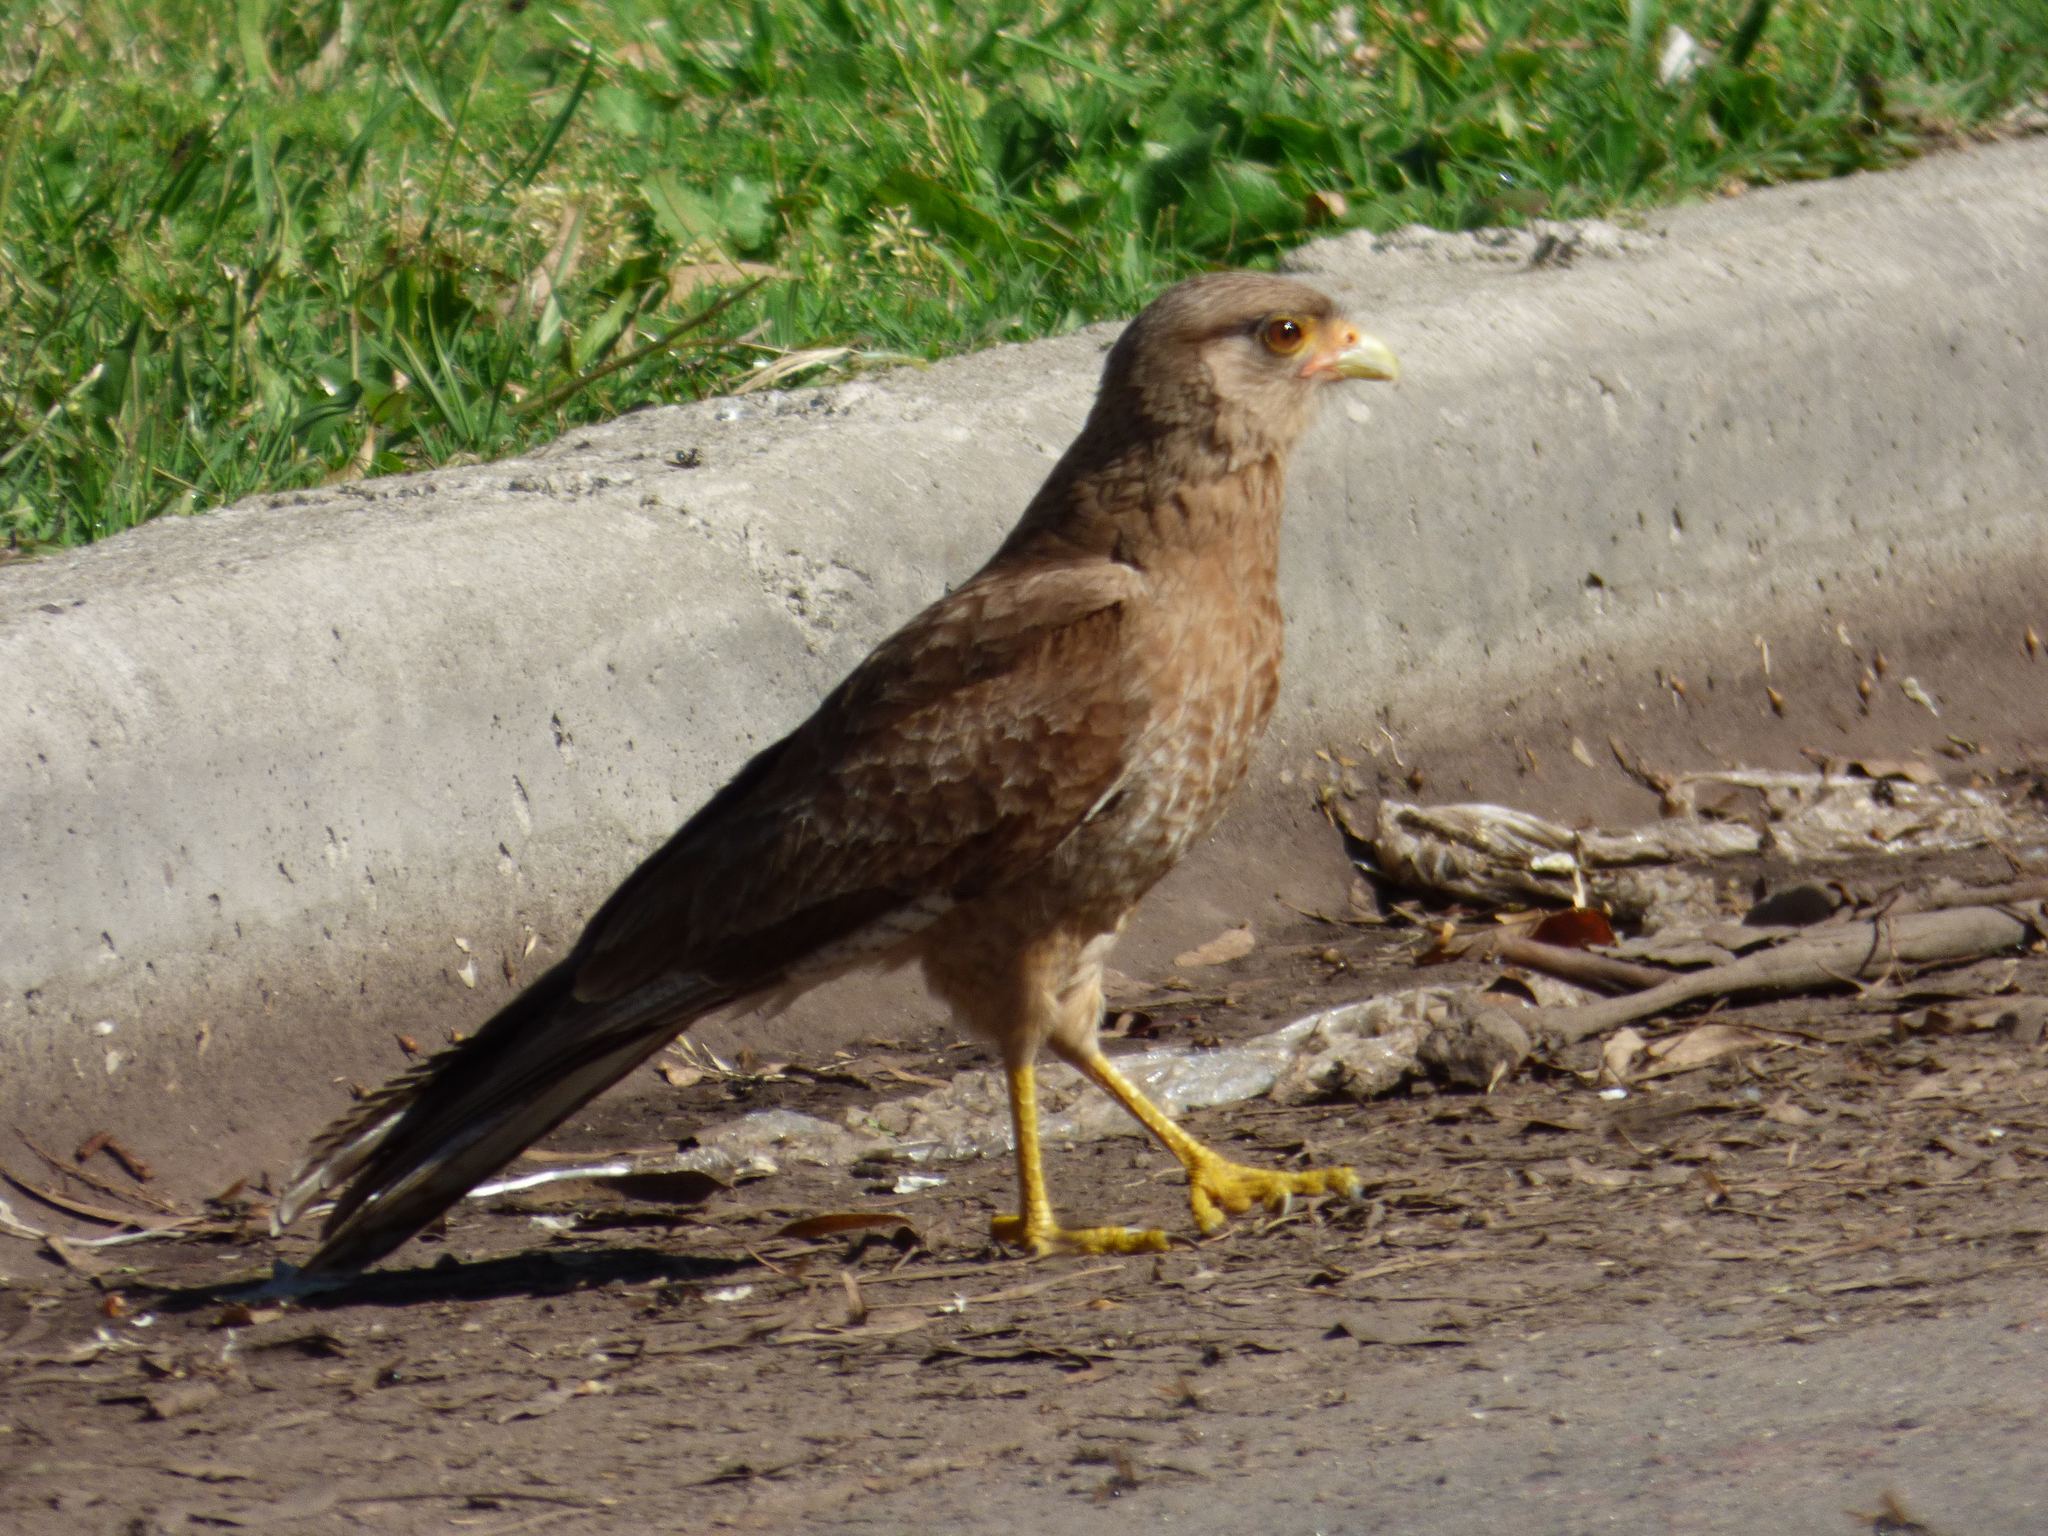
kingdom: Animalia
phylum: Chordata
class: Aves
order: Falconiformes
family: Falconidae
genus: Daptrius
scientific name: Daptrius
